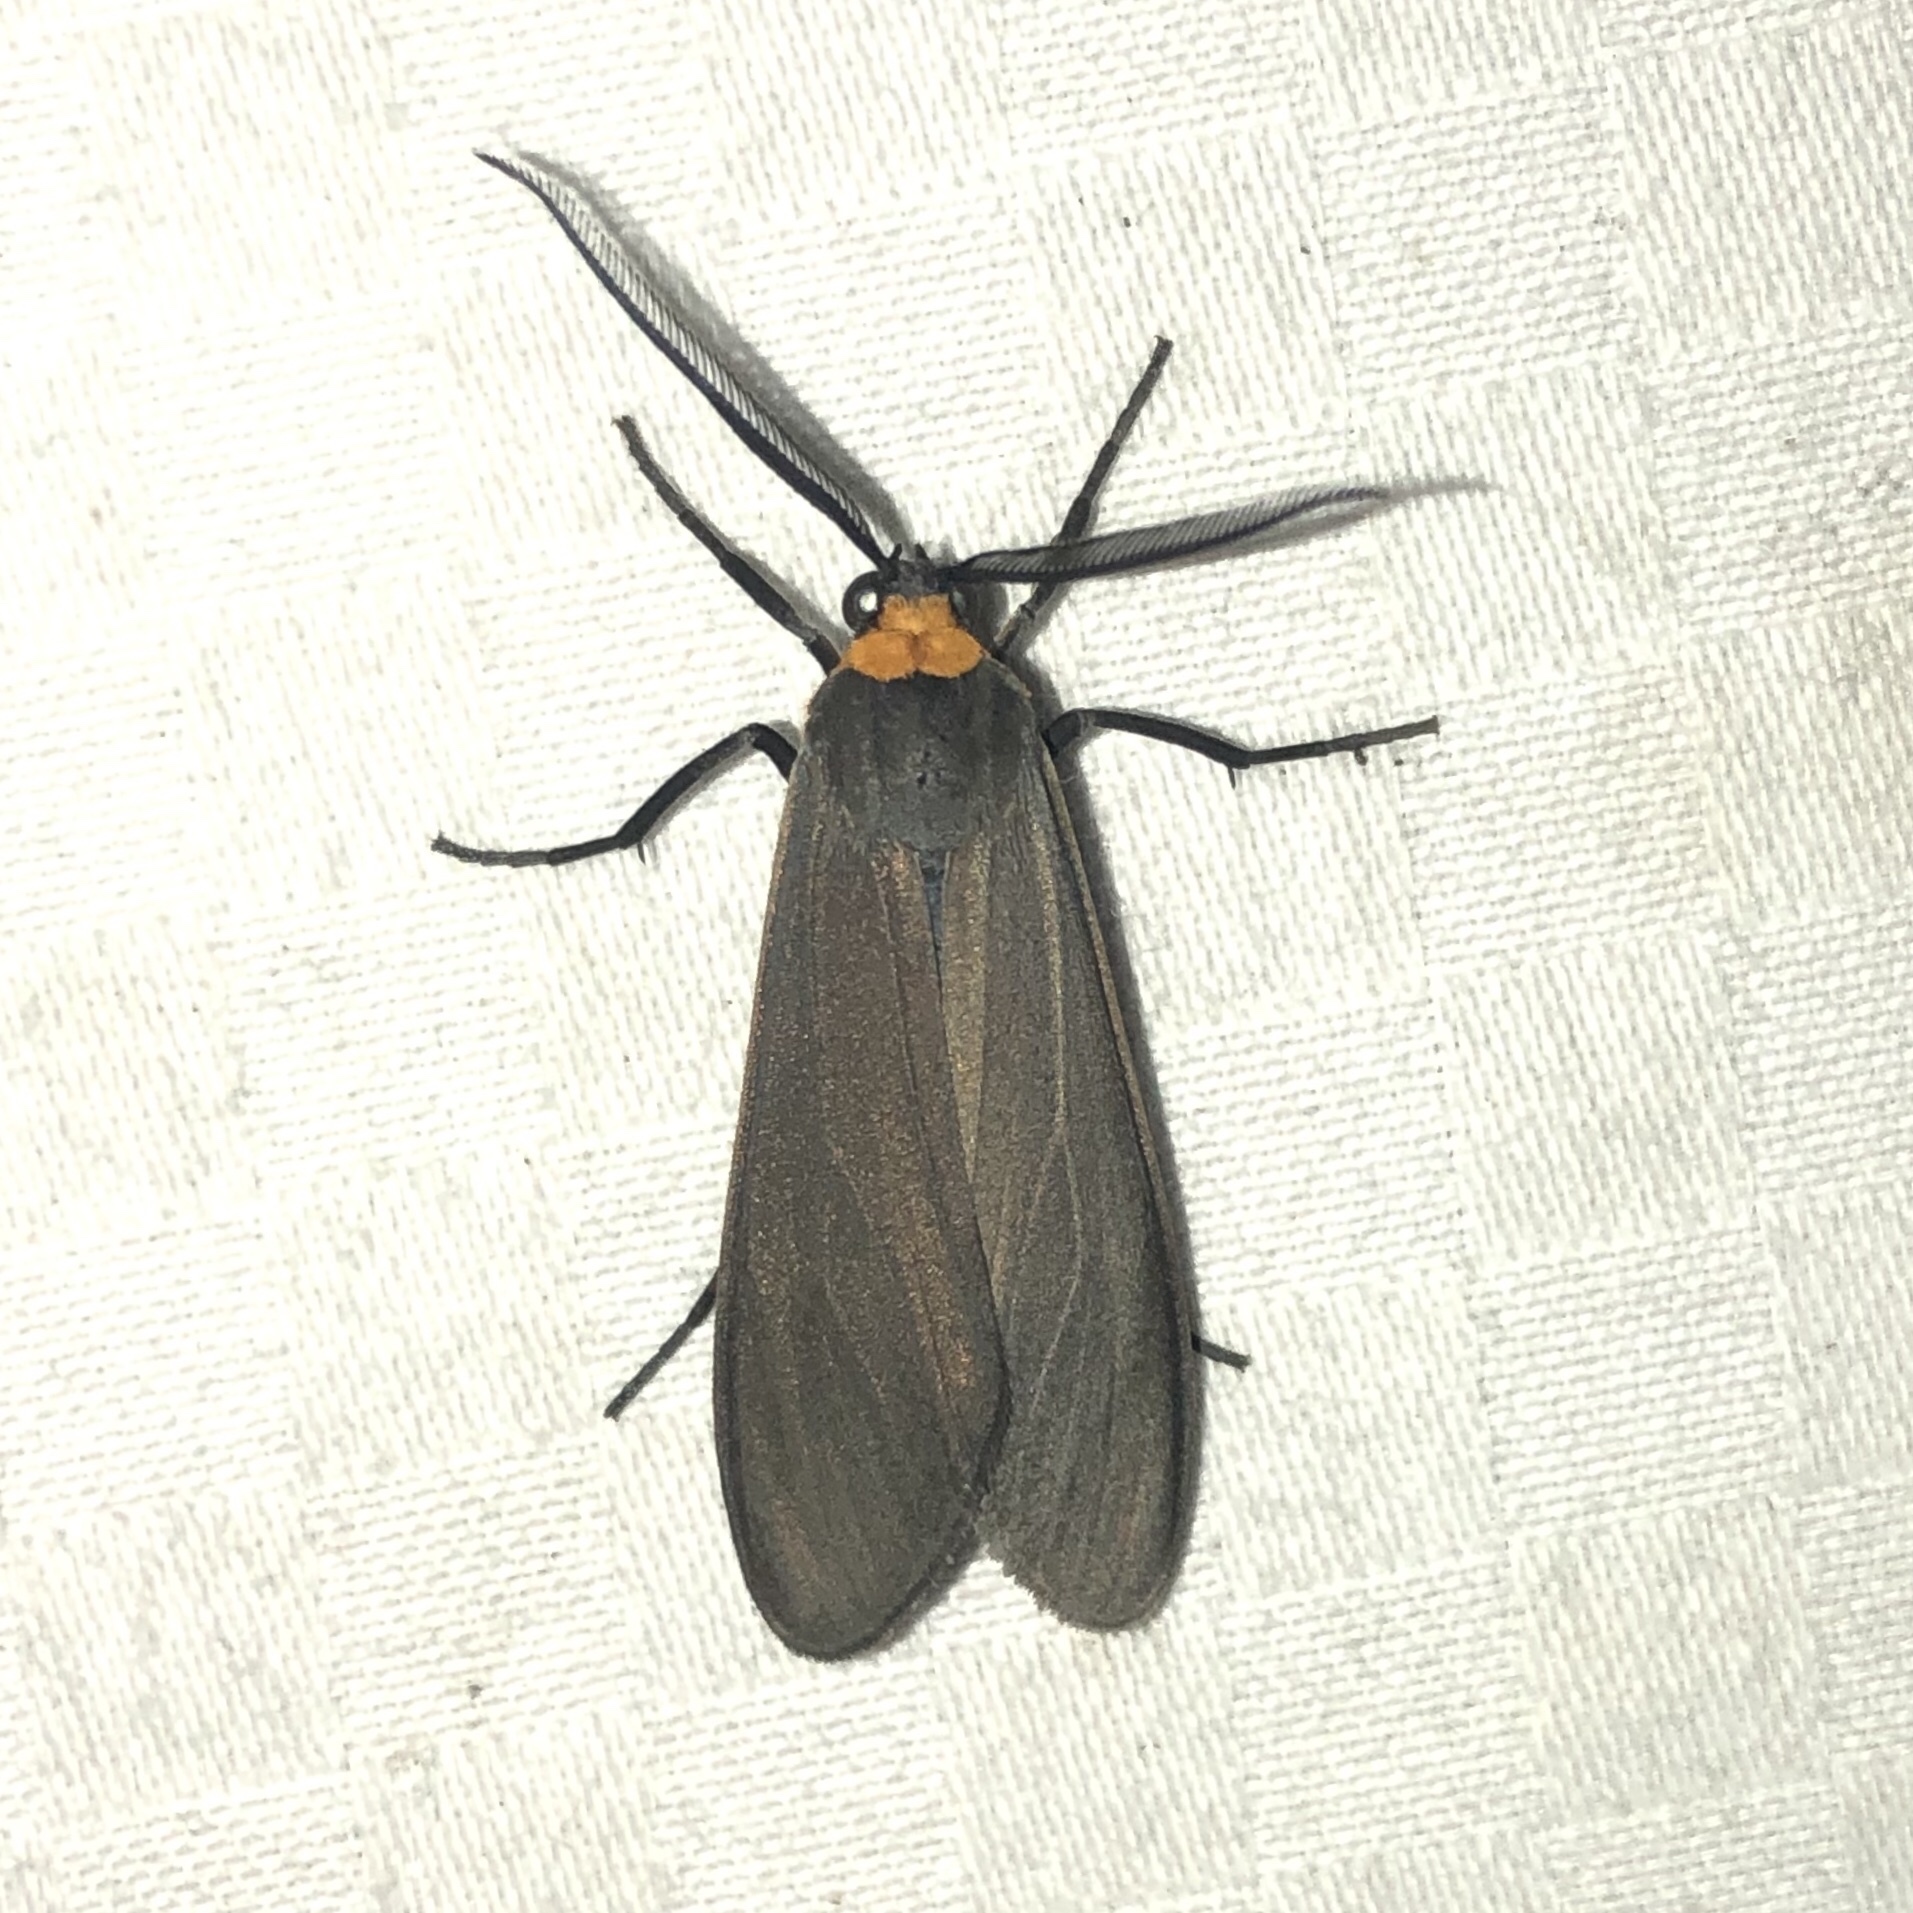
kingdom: Animalia
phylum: Arthropoda
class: Insecta
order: Lepidoptera
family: Erebidae
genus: Cisseps
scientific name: Cisseps fulvicollis
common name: Yellow-collared scape moth
